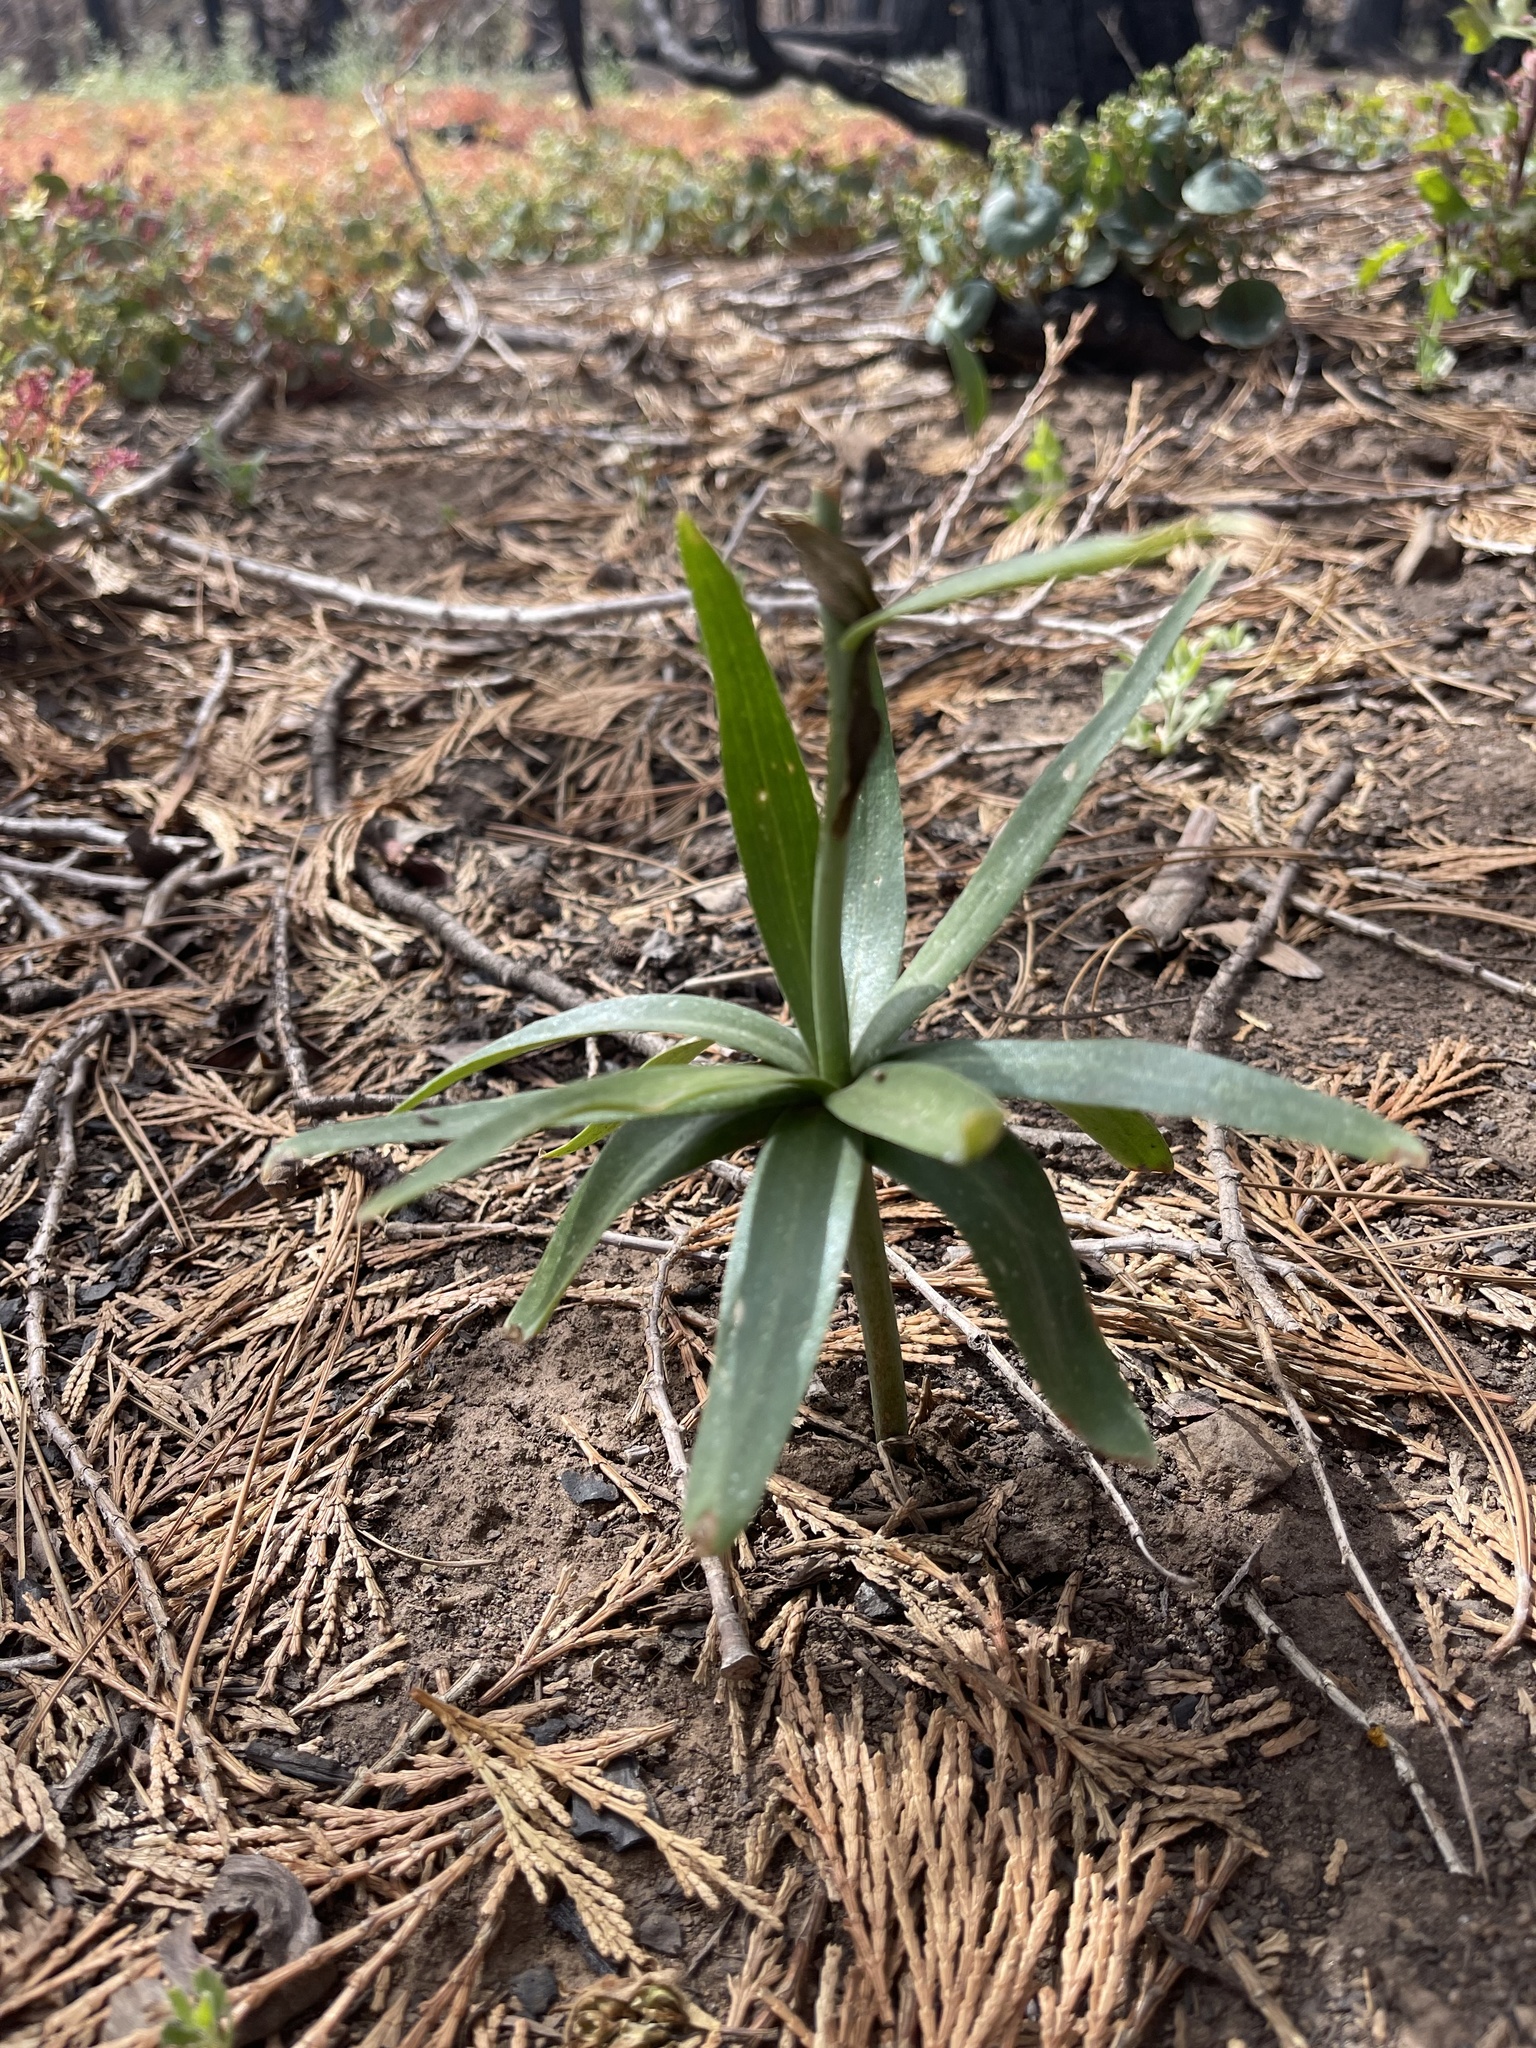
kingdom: Plantae
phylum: Tracheophyta
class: Liliopsida
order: Liliales
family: Liliaceae
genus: Fritillaria
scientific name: Fritillaria brandegeei
